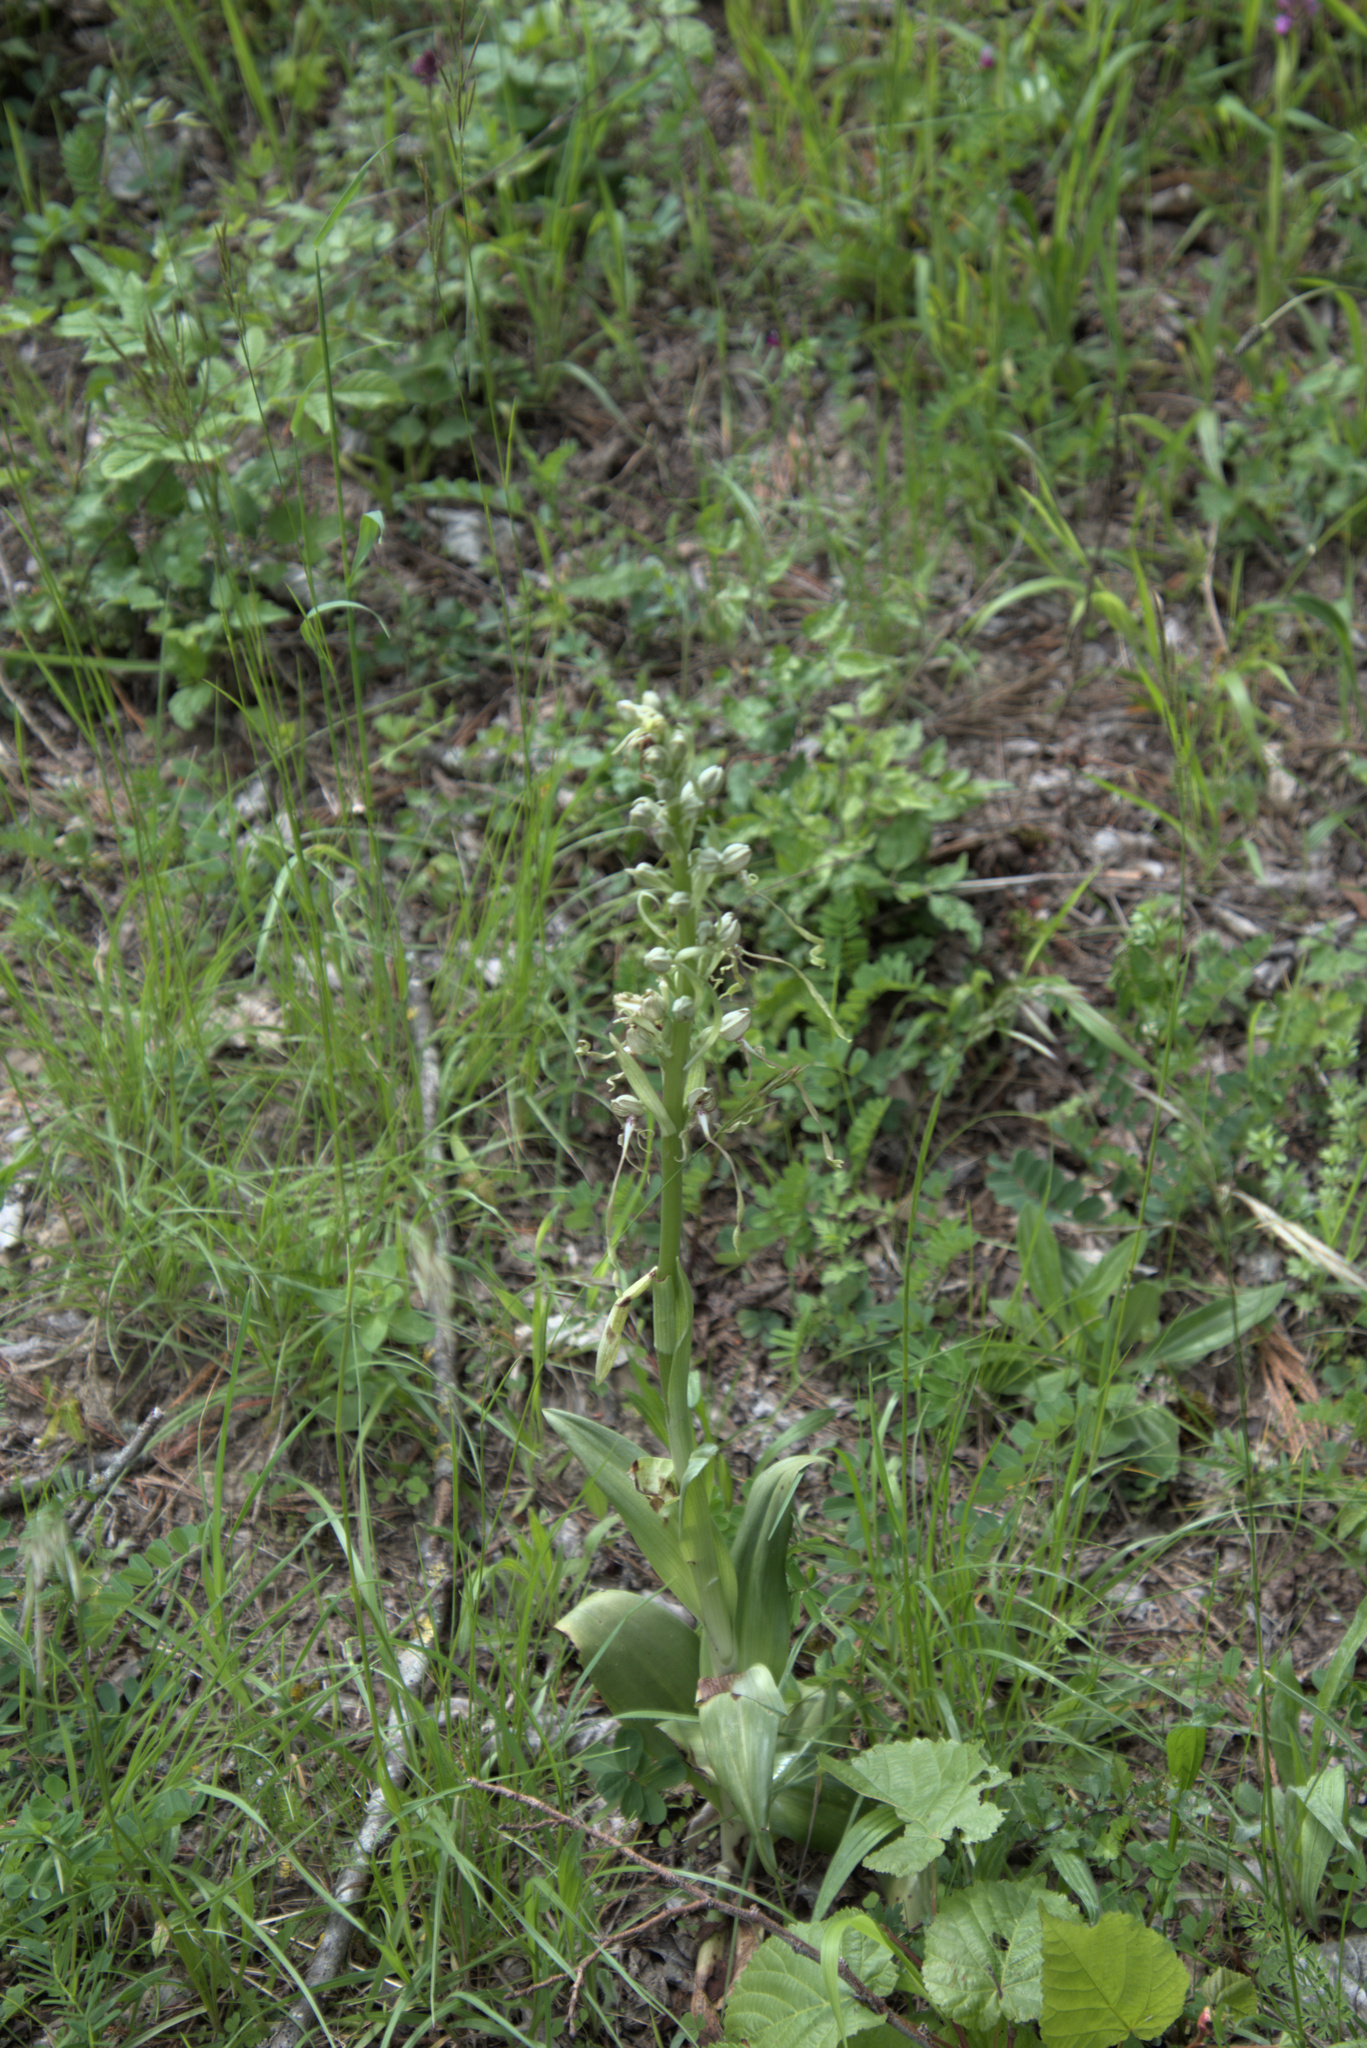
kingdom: Plantae
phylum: Tracheophyta
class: Liliopsida
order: Asparagales
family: Orchidaceae
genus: Himantoglossum
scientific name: Himantoglossum hircinum
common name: Lizard orchid
